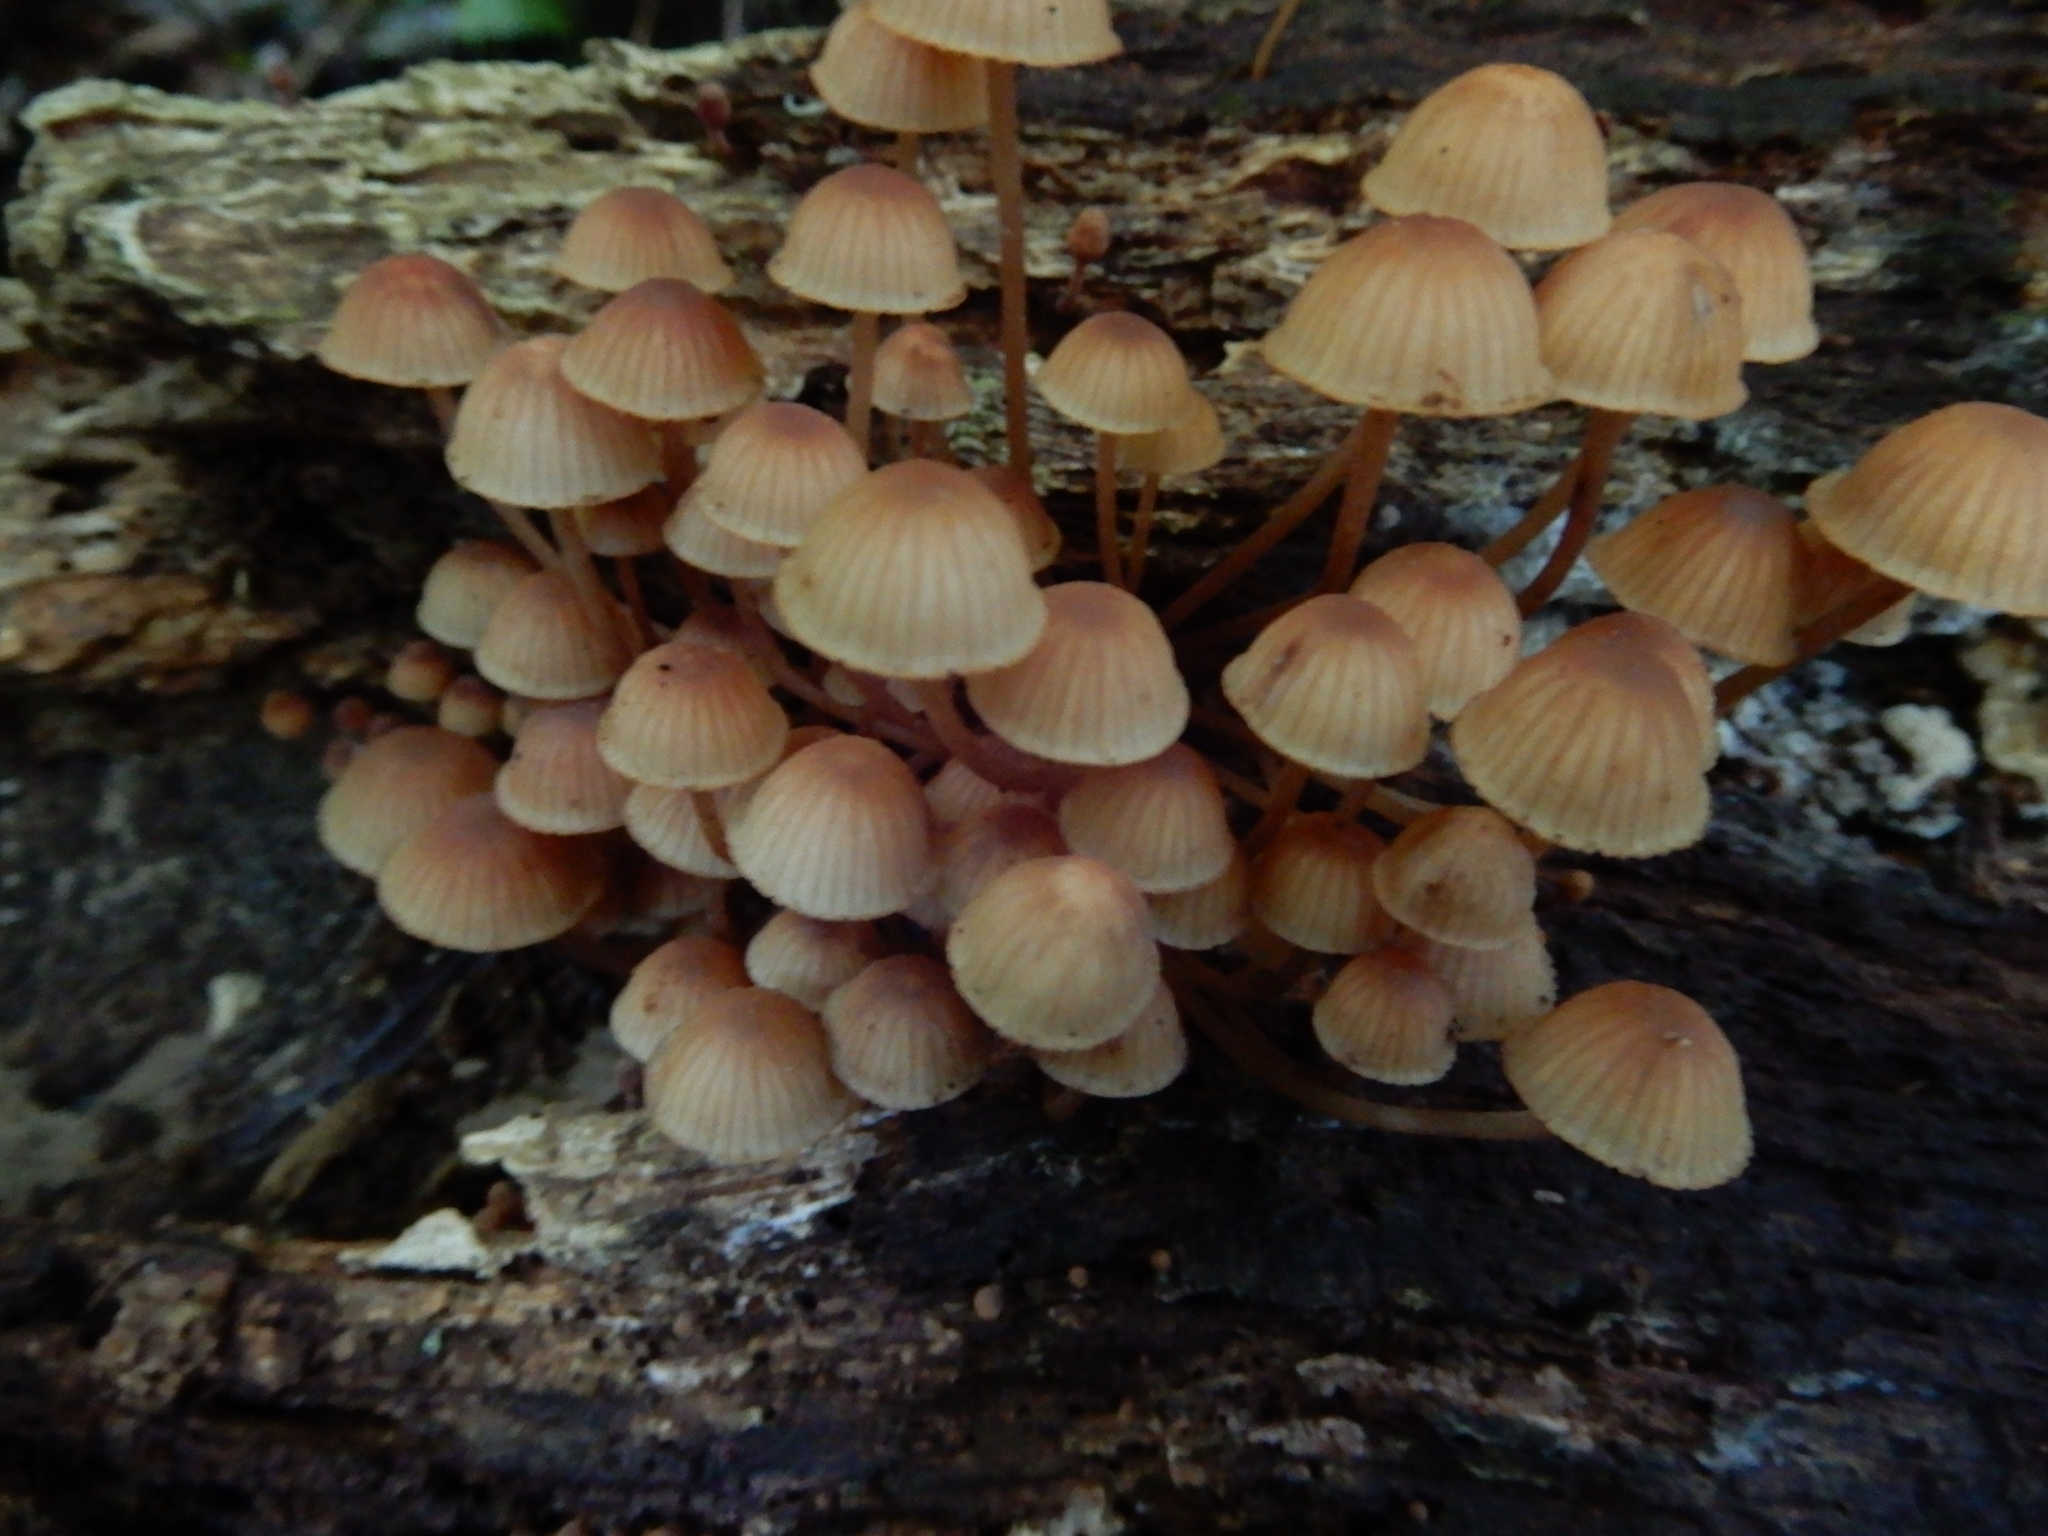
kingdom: Fungi
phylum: Basidiomycota
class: Agaricomycetes
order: Agaricales
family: Mycenaceae
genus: Mycena
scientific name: Mycena parsonsii
